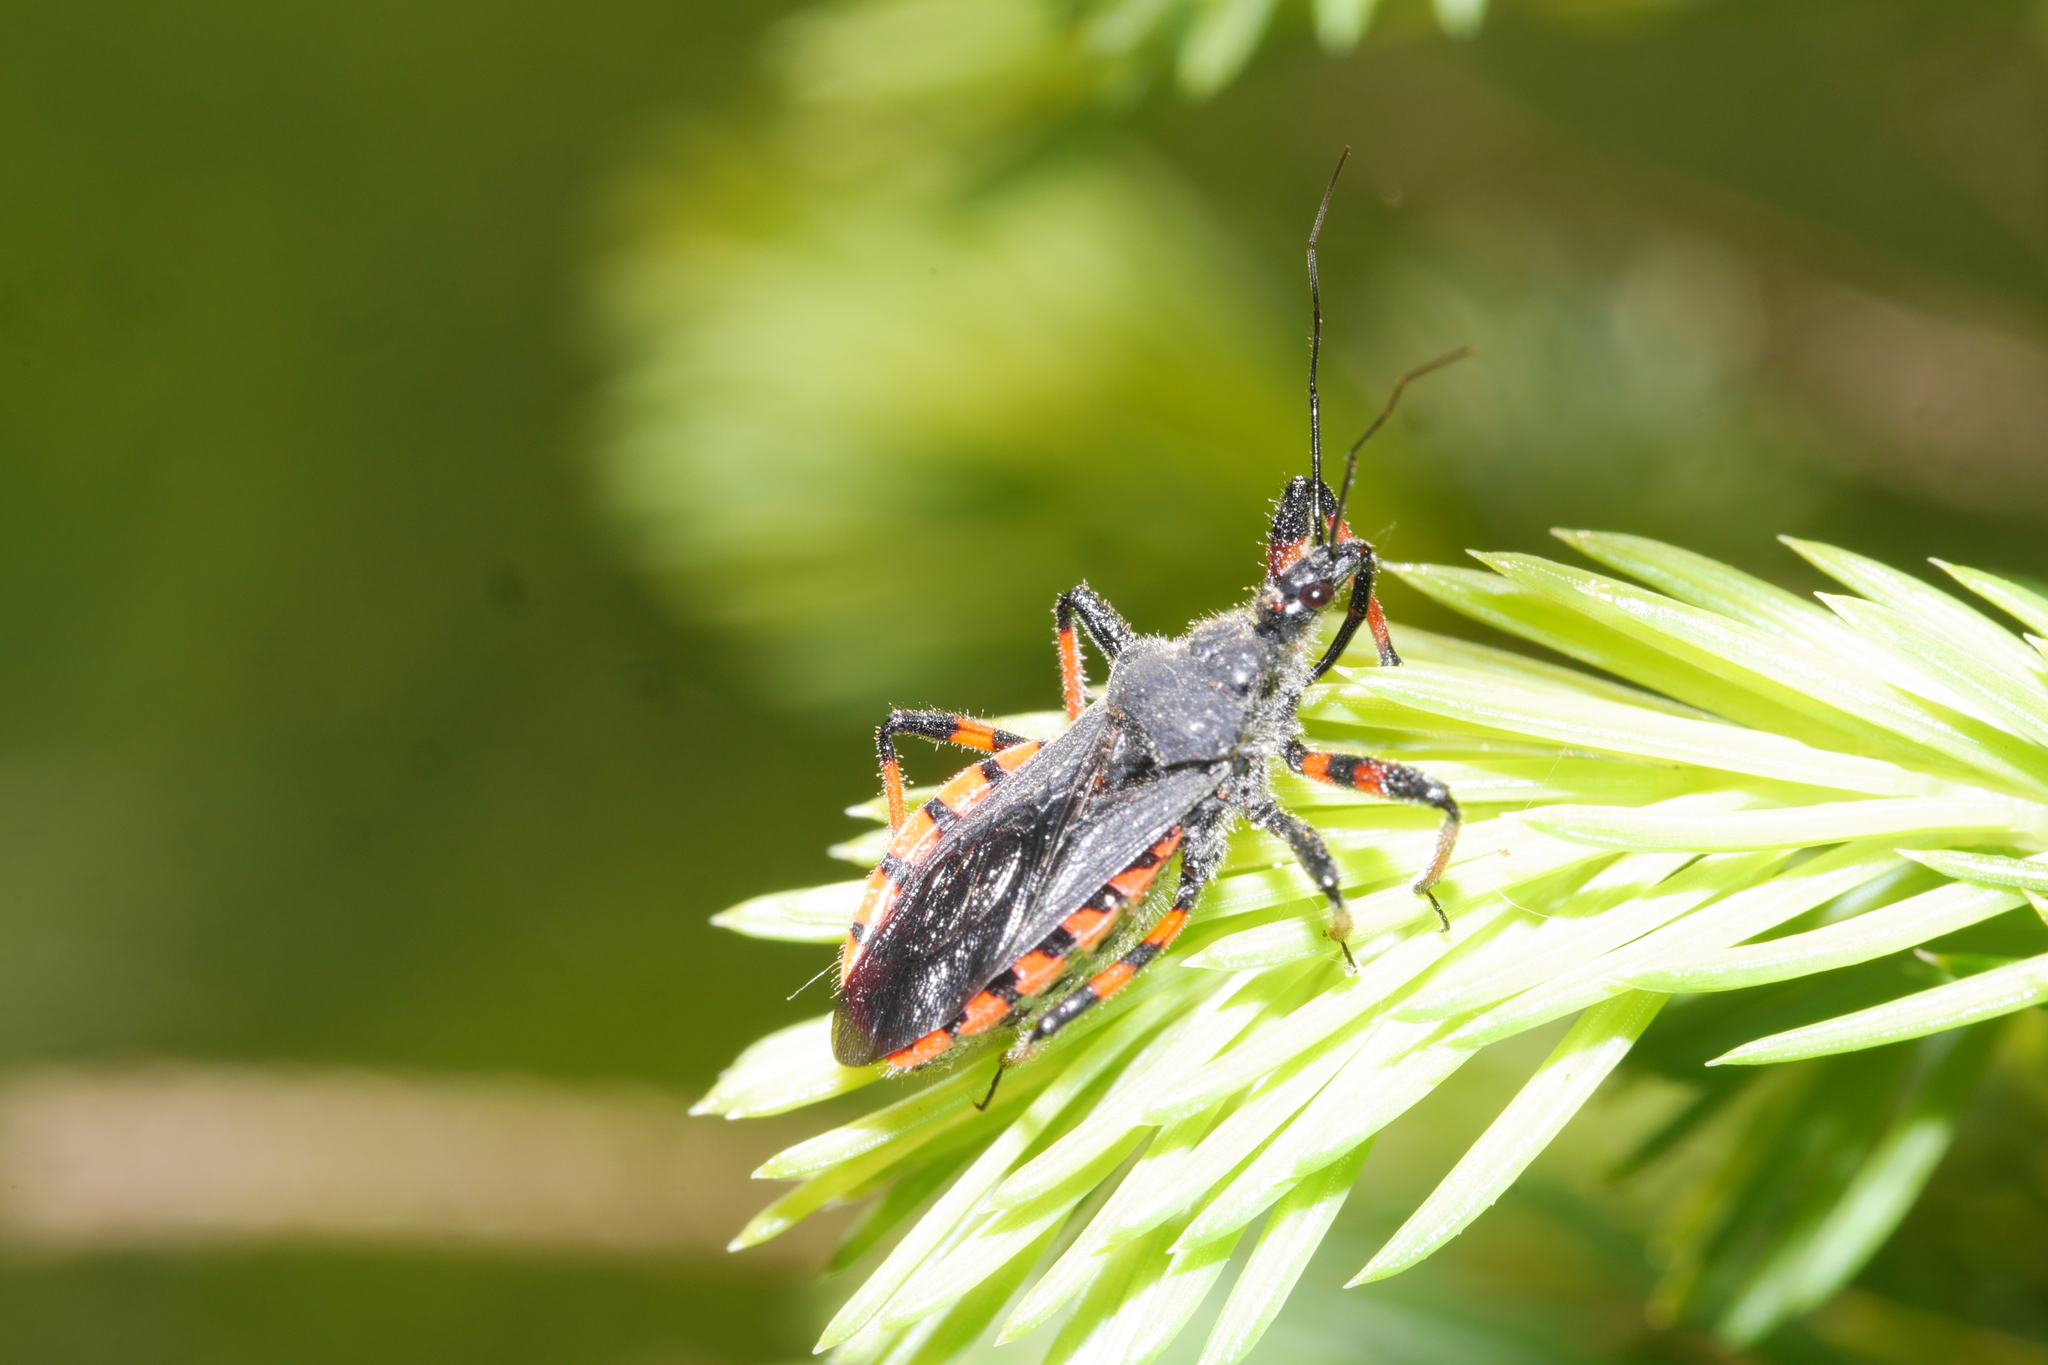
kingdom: Animalia
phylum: Arthropoda
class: Insecta
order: Hemiptera
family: Reduviidae
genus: Rhynocoris
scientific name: Rhynocoris annulatus
